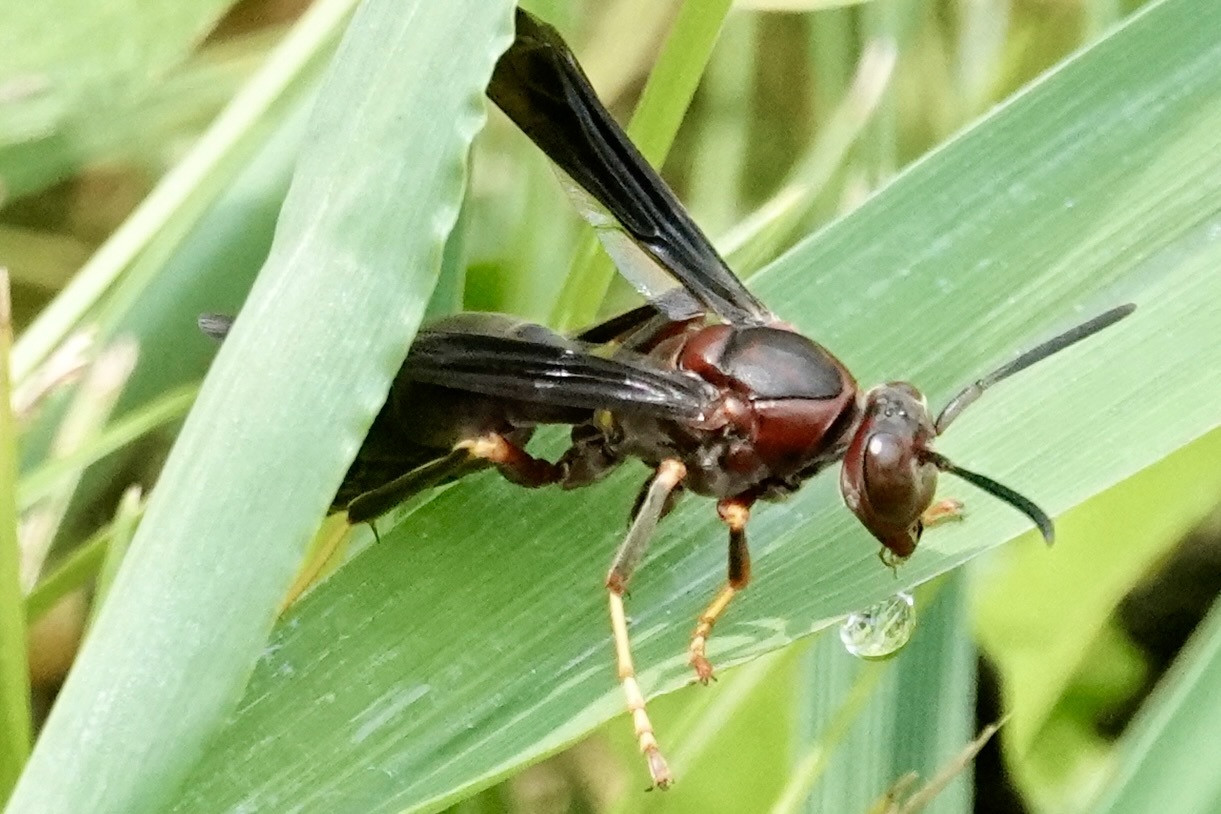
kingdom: Animalia
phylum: Arthropoda
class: Insecta
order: Hymenoptera
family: Eumenidae
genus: Polistes
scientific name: Polistes metricus
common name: Metric paper wasp
